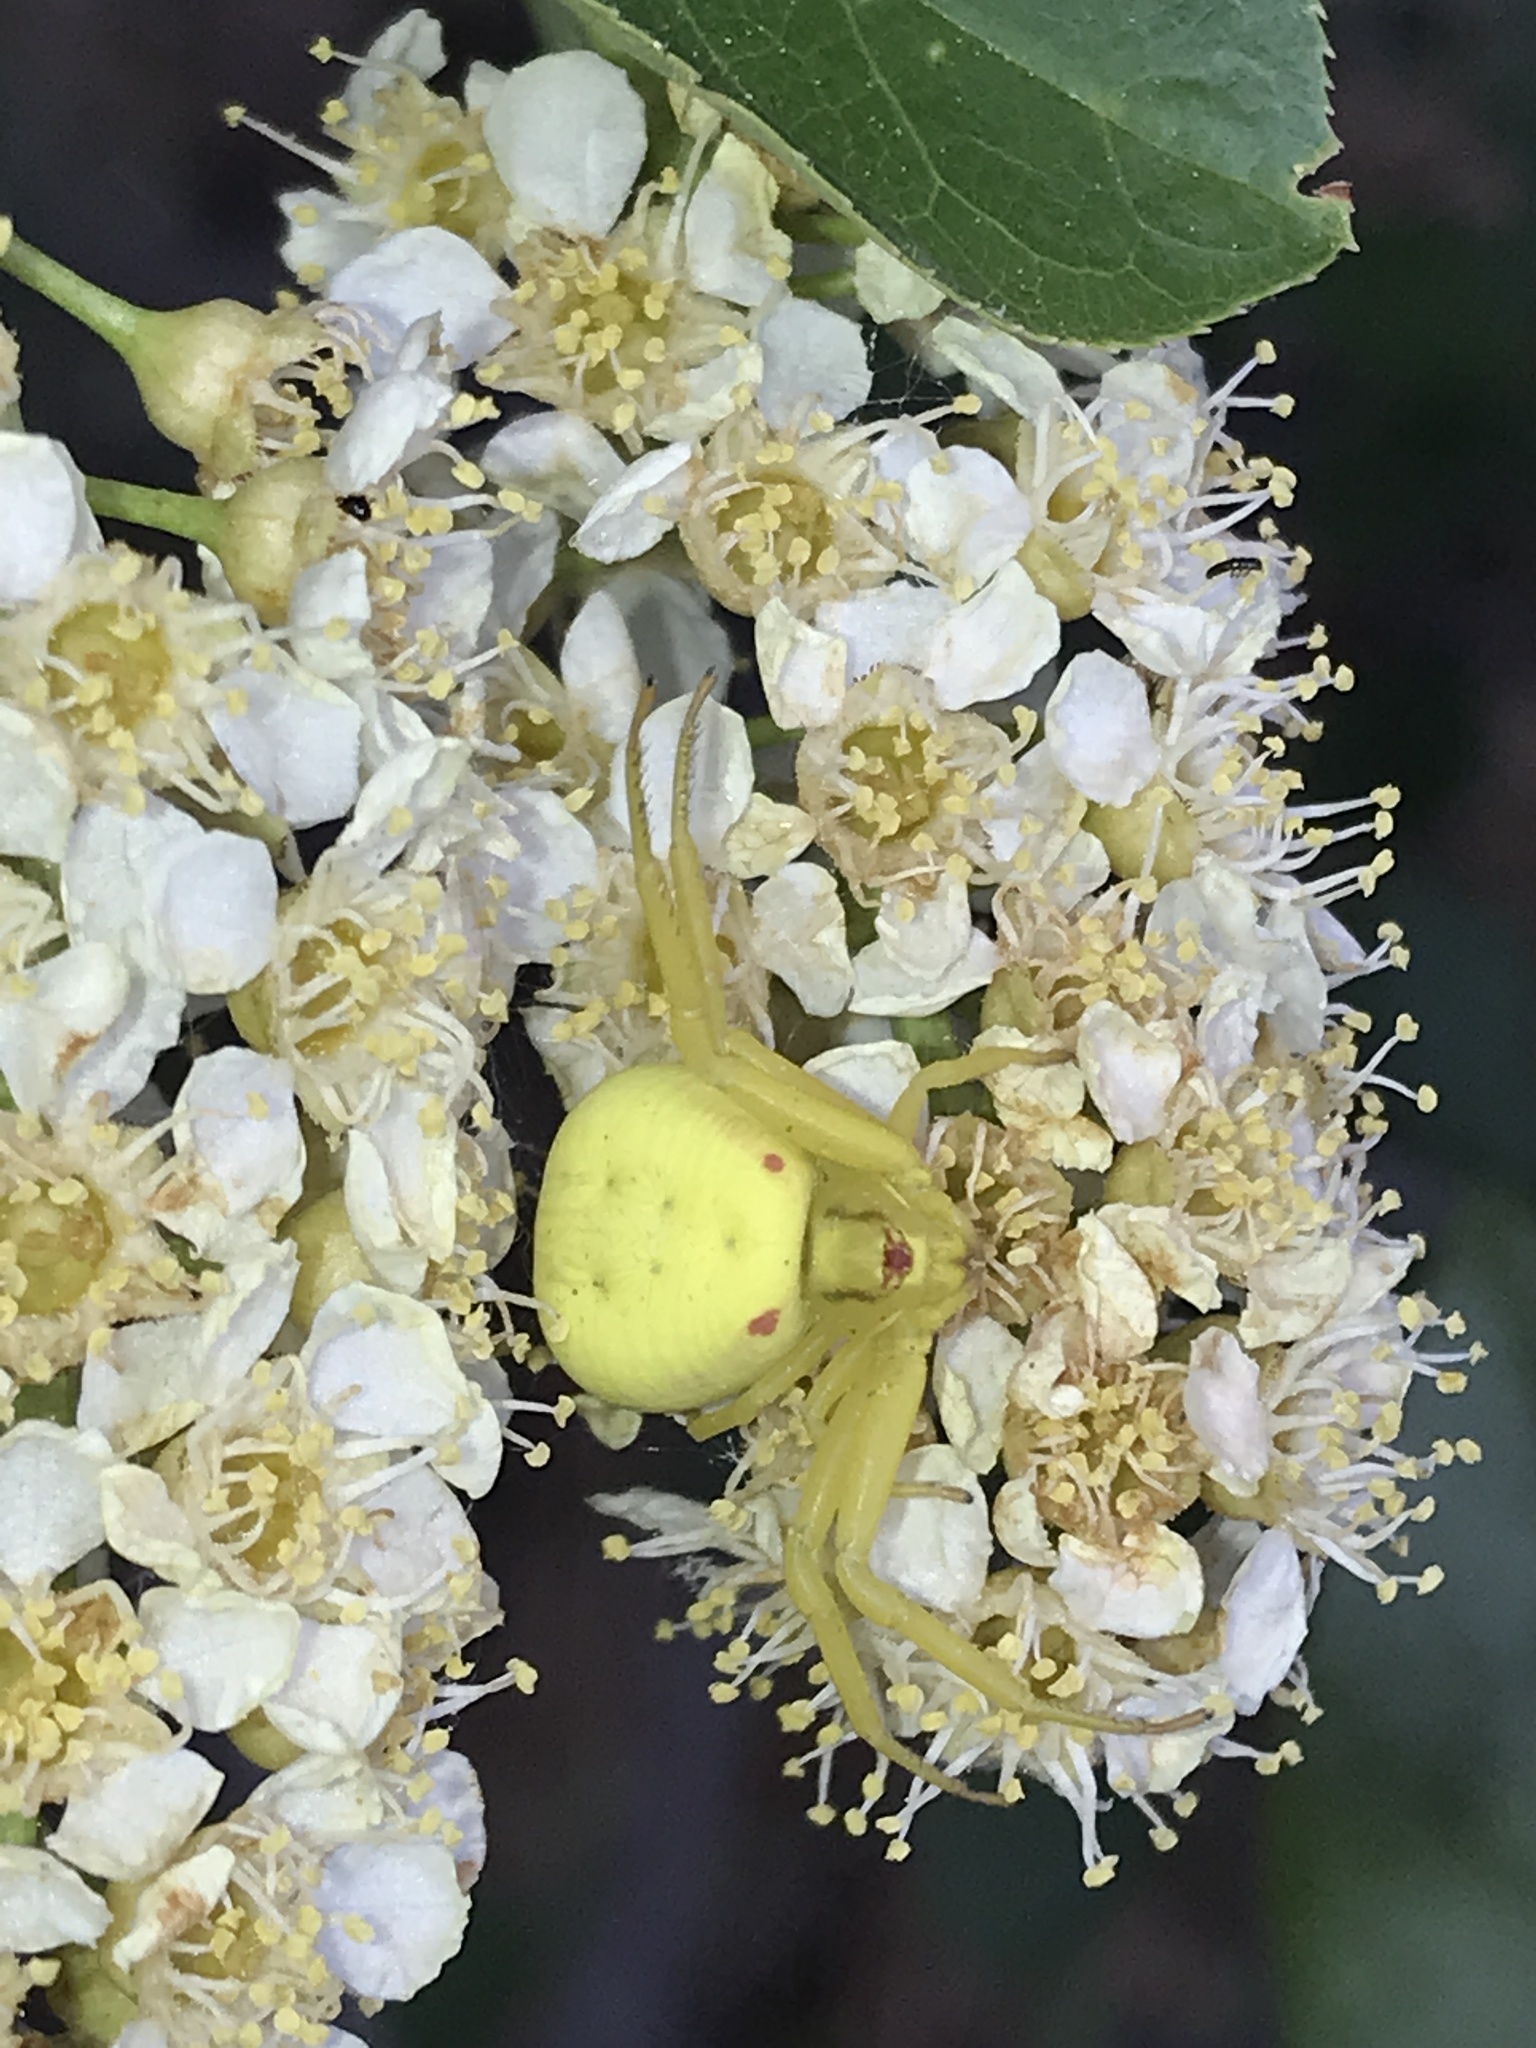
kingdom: Animalia
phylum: Arthropoda
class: Arachnida
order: Araneae
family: Thomisidae
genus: Misumena
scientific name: Misumena vatia
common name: Goldenrod crab spider
